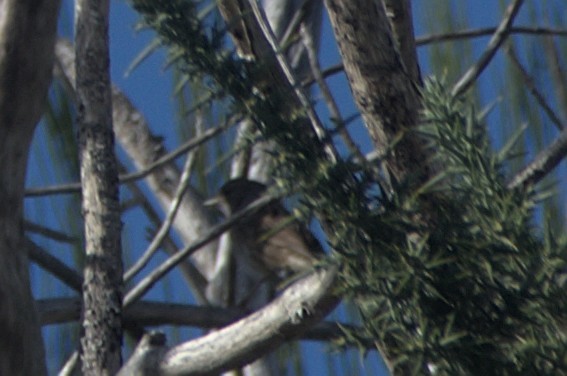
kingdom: Animalia
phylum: Chordata
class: Aves
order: Passeriformes
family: Prunellidae
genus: Prunella
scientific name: Prunella modularis
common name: Dunnock
